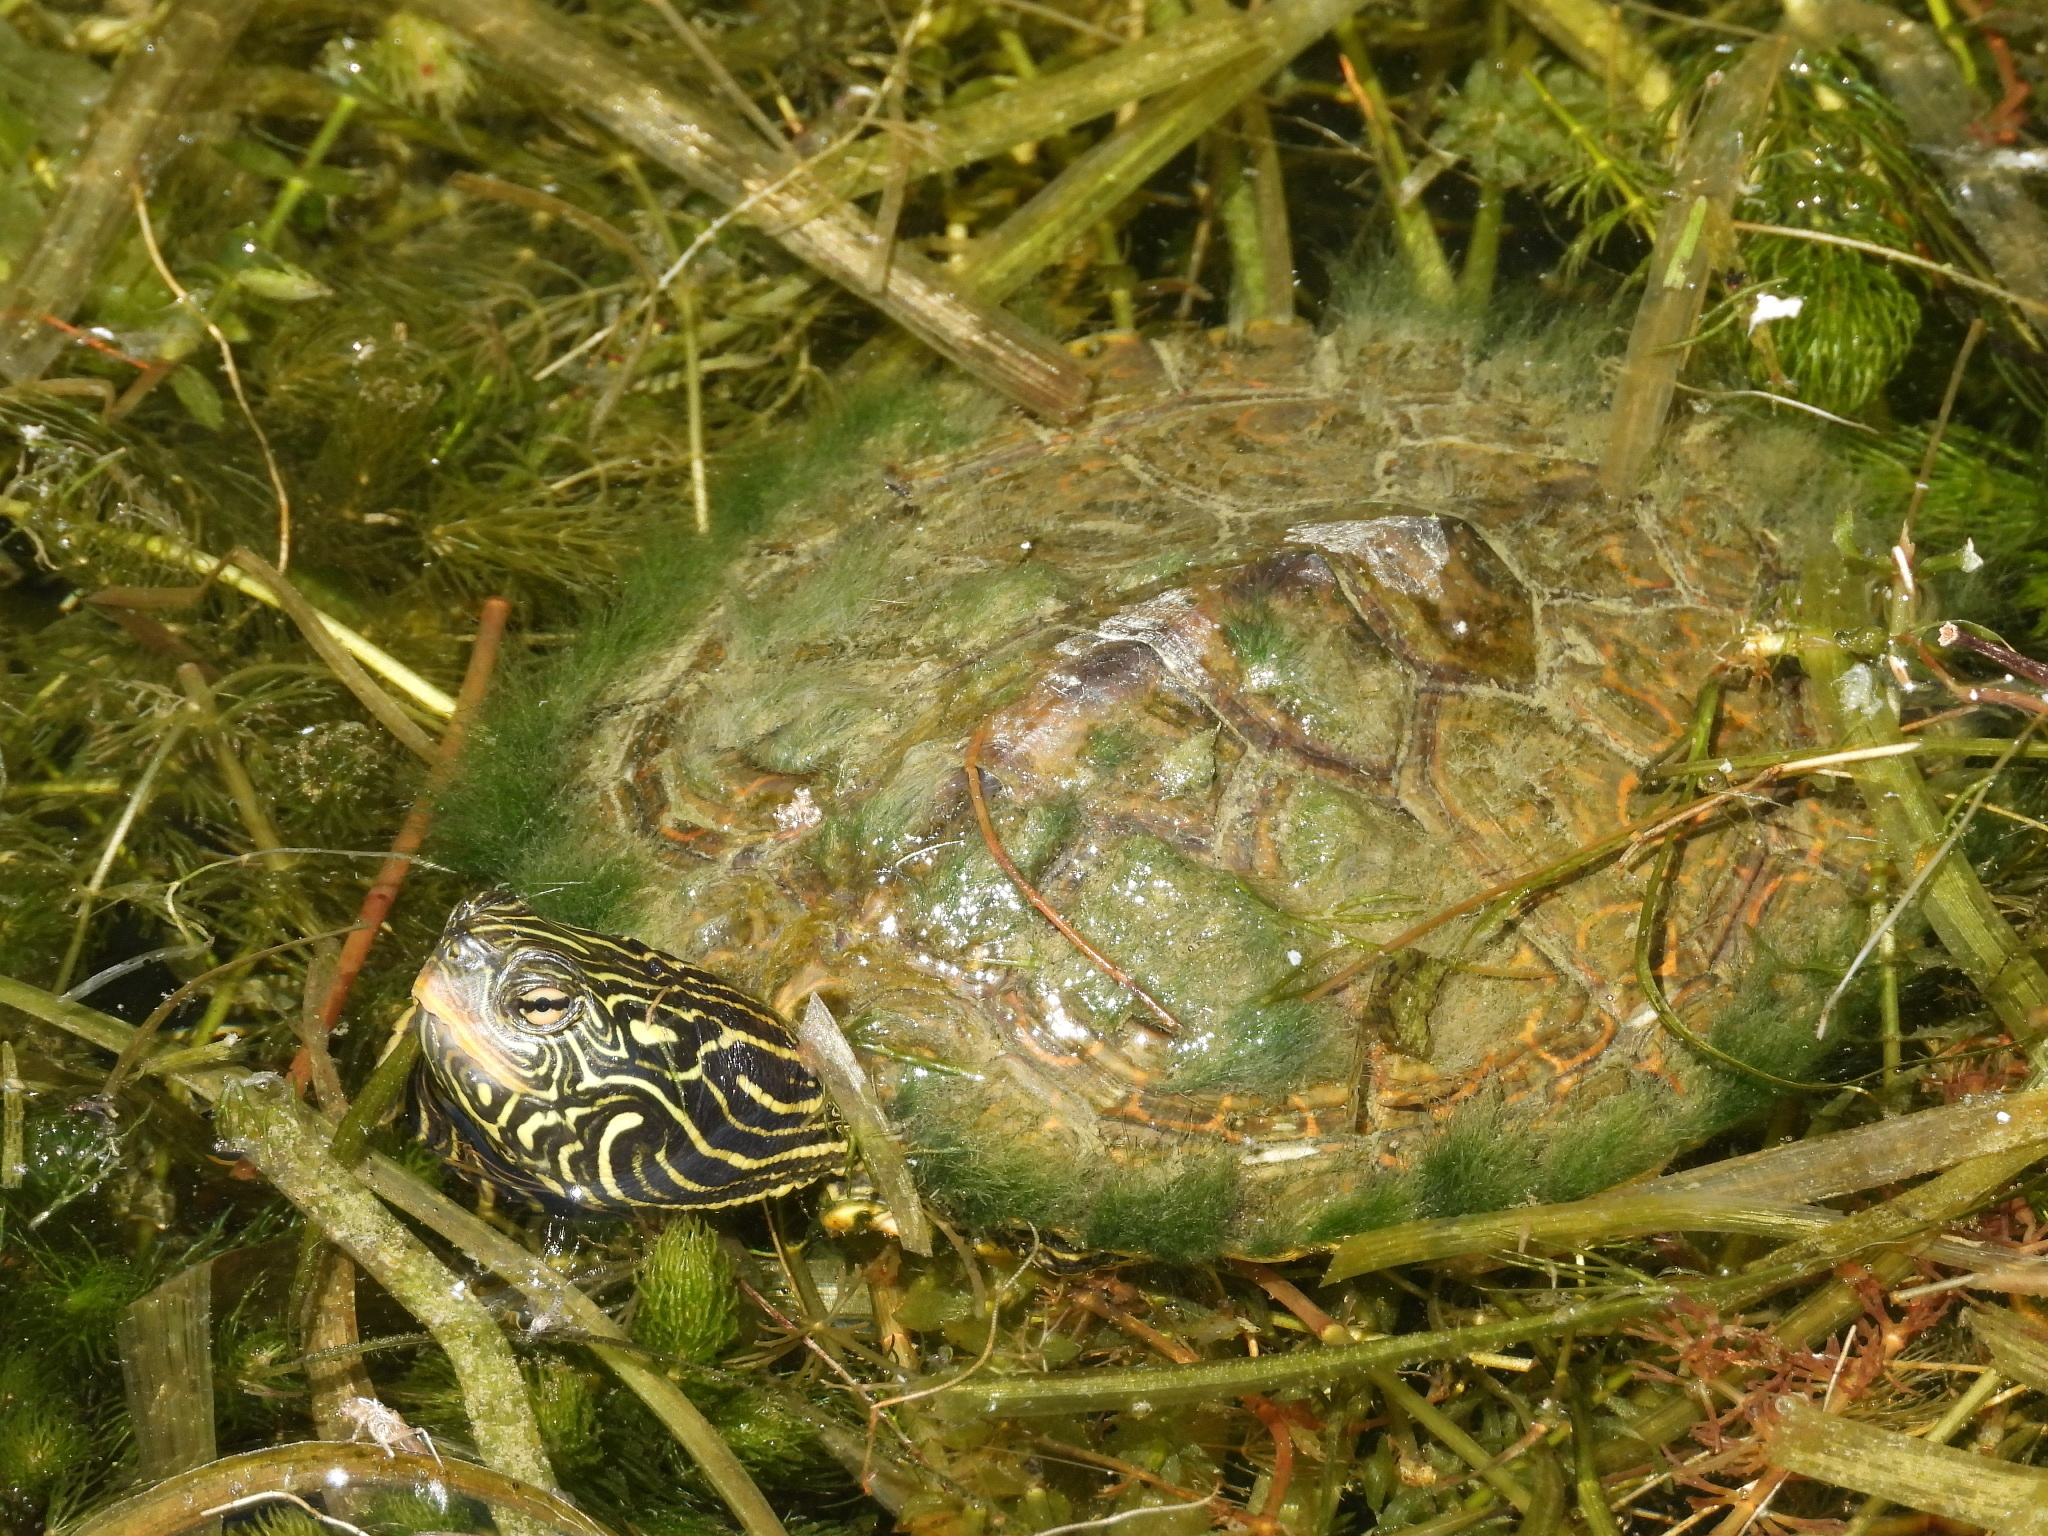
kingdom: Animalia
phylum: Chordata
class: Testudines
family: Emydidae
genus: Graptemys
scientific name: Graptemys geographica
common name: Common map turtle
